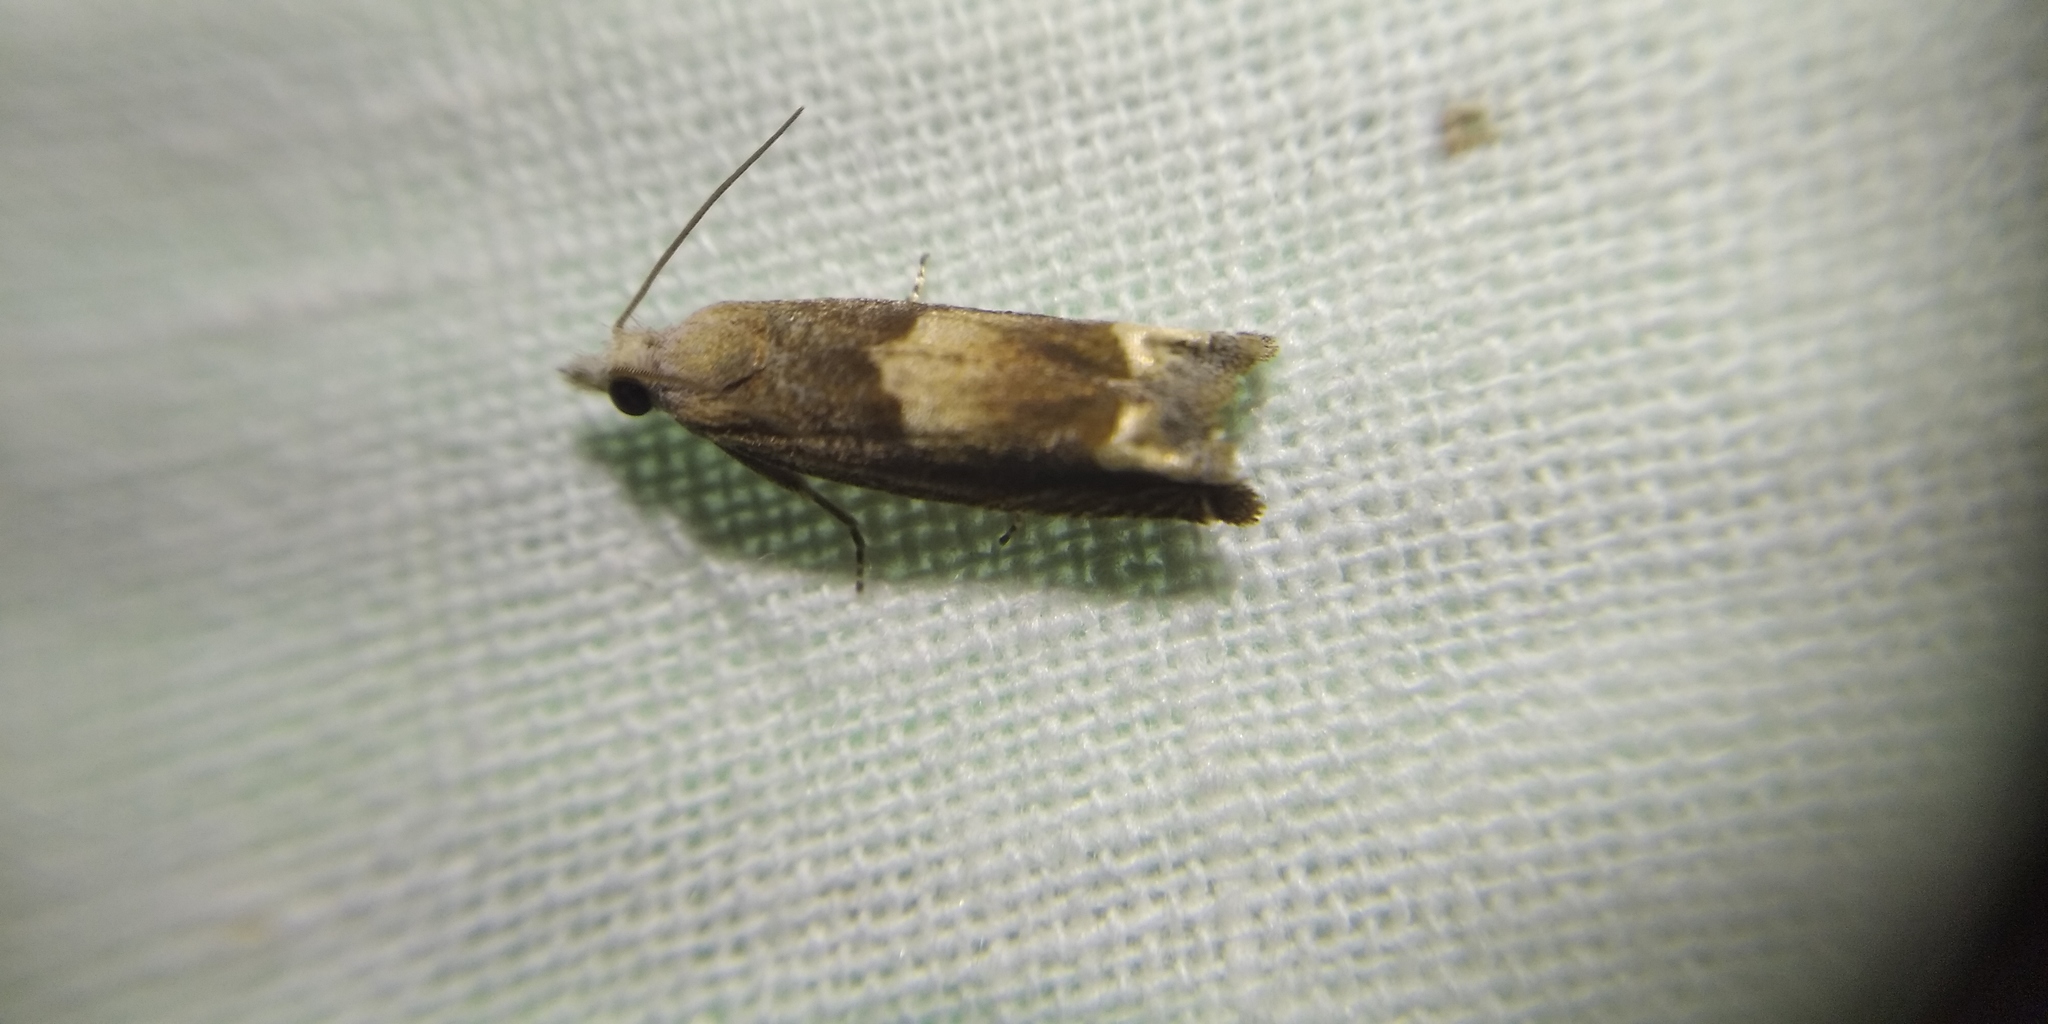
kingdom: Animalia
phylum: Arthropoda
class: Insecta
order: Lepidoptera
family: Tortricidae
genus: Eucosma
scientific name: Eucosma conterminana
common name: Pale lettuce bell
